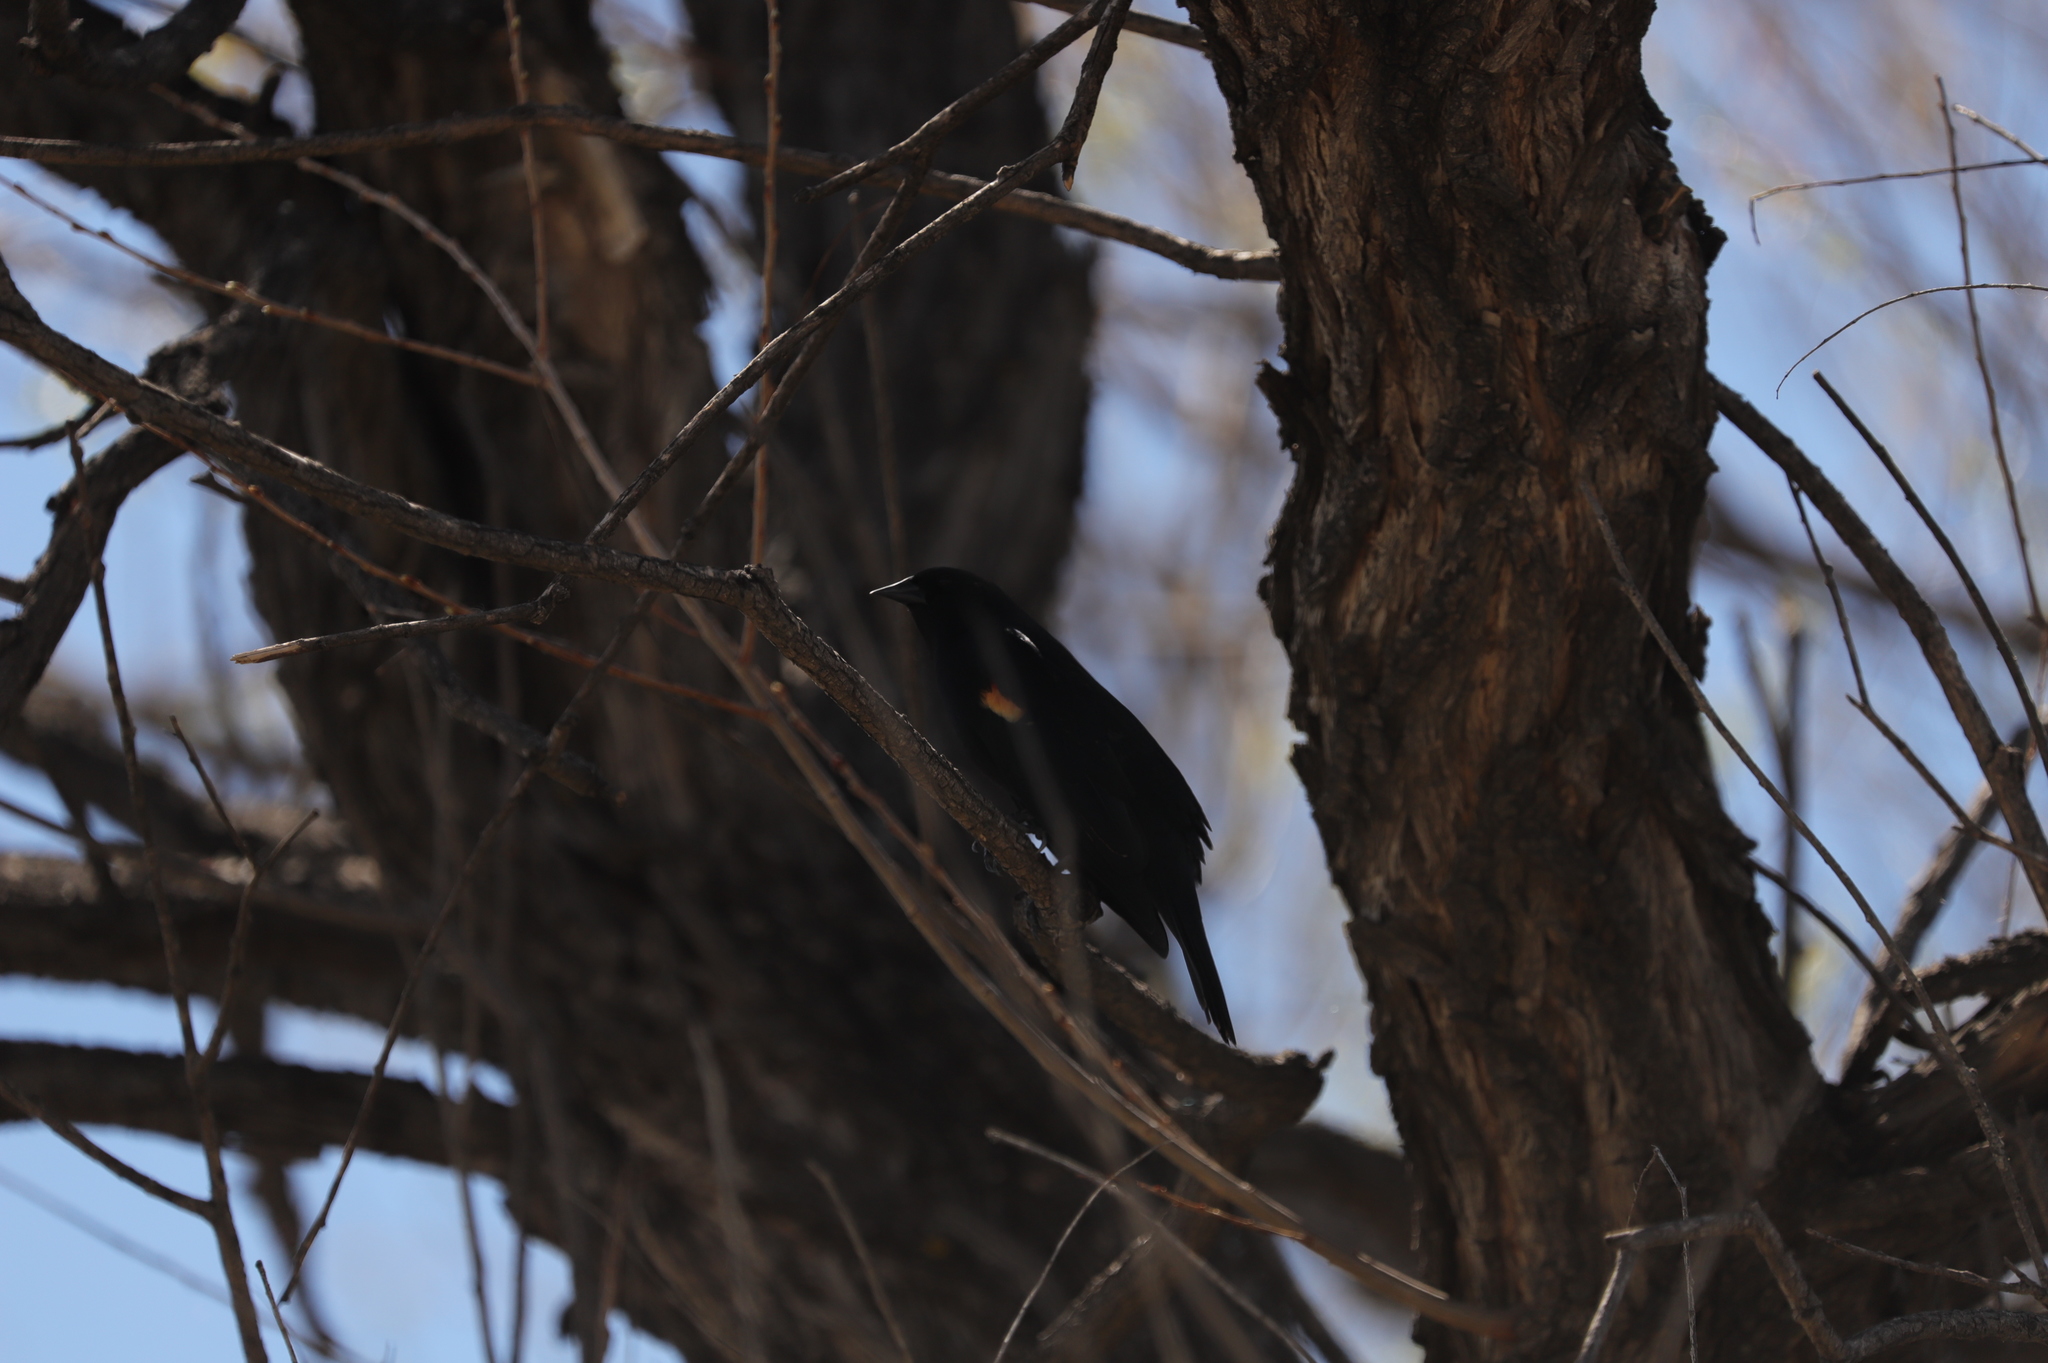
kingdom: Animalia
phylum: Chordata
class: Aves
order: Passeriformes
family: Icteridae
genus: Agelaius
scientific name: Agelaius phoeniceus
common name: Red-winged blackbird
